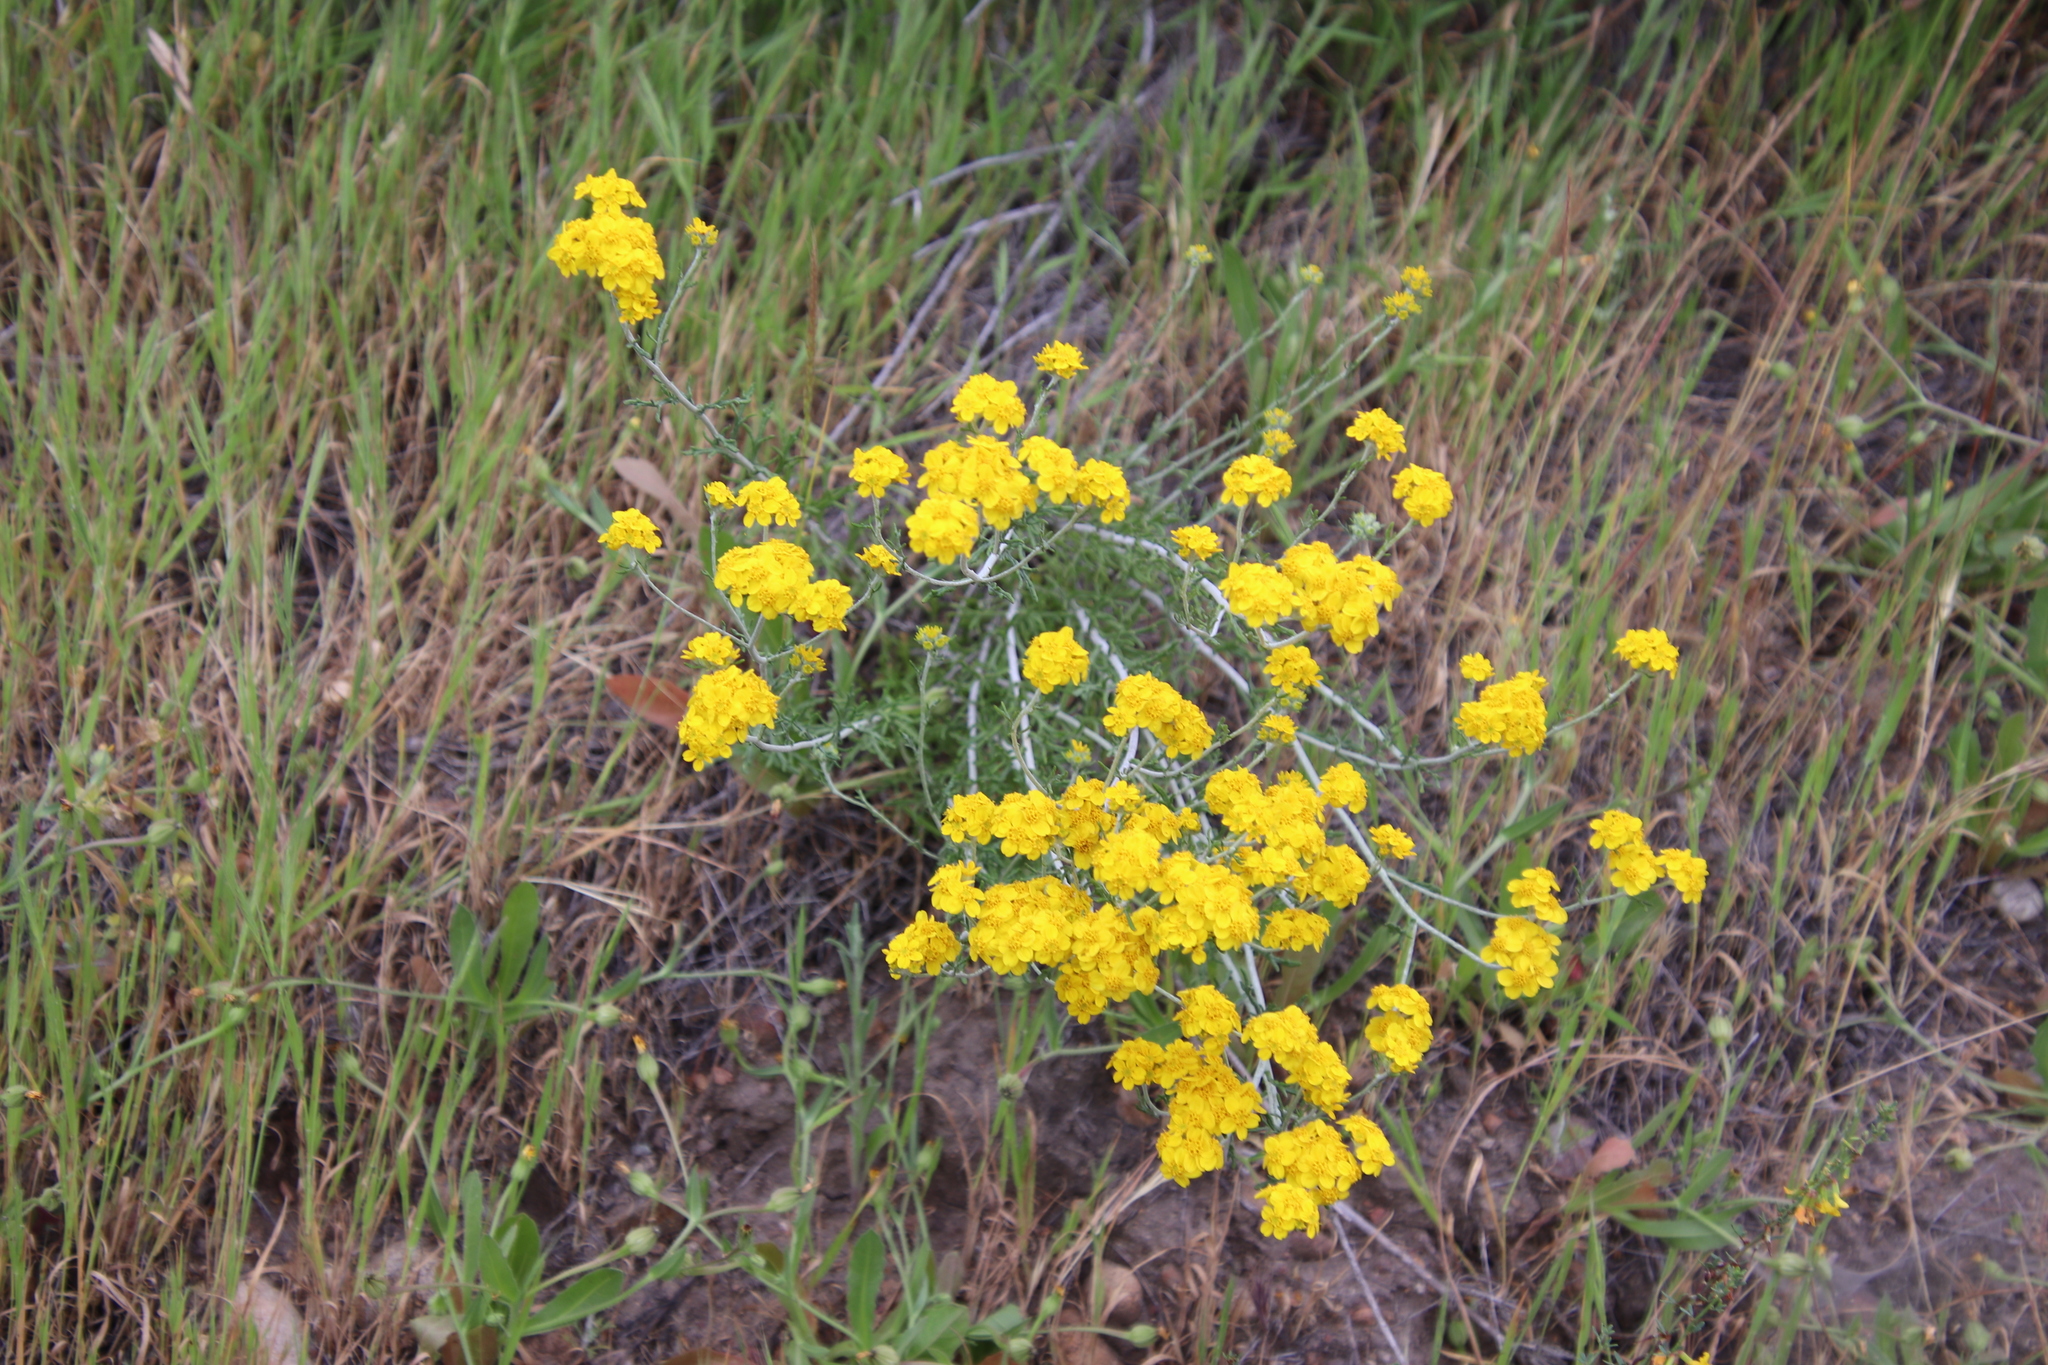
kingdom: Plantae
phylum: Tracheophyta
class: Magnoliopsida
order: Asterales
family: Asteraceae
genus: Eriophyllum
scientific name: Eriophyllum confertiflorum
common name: Golden-yarrow
